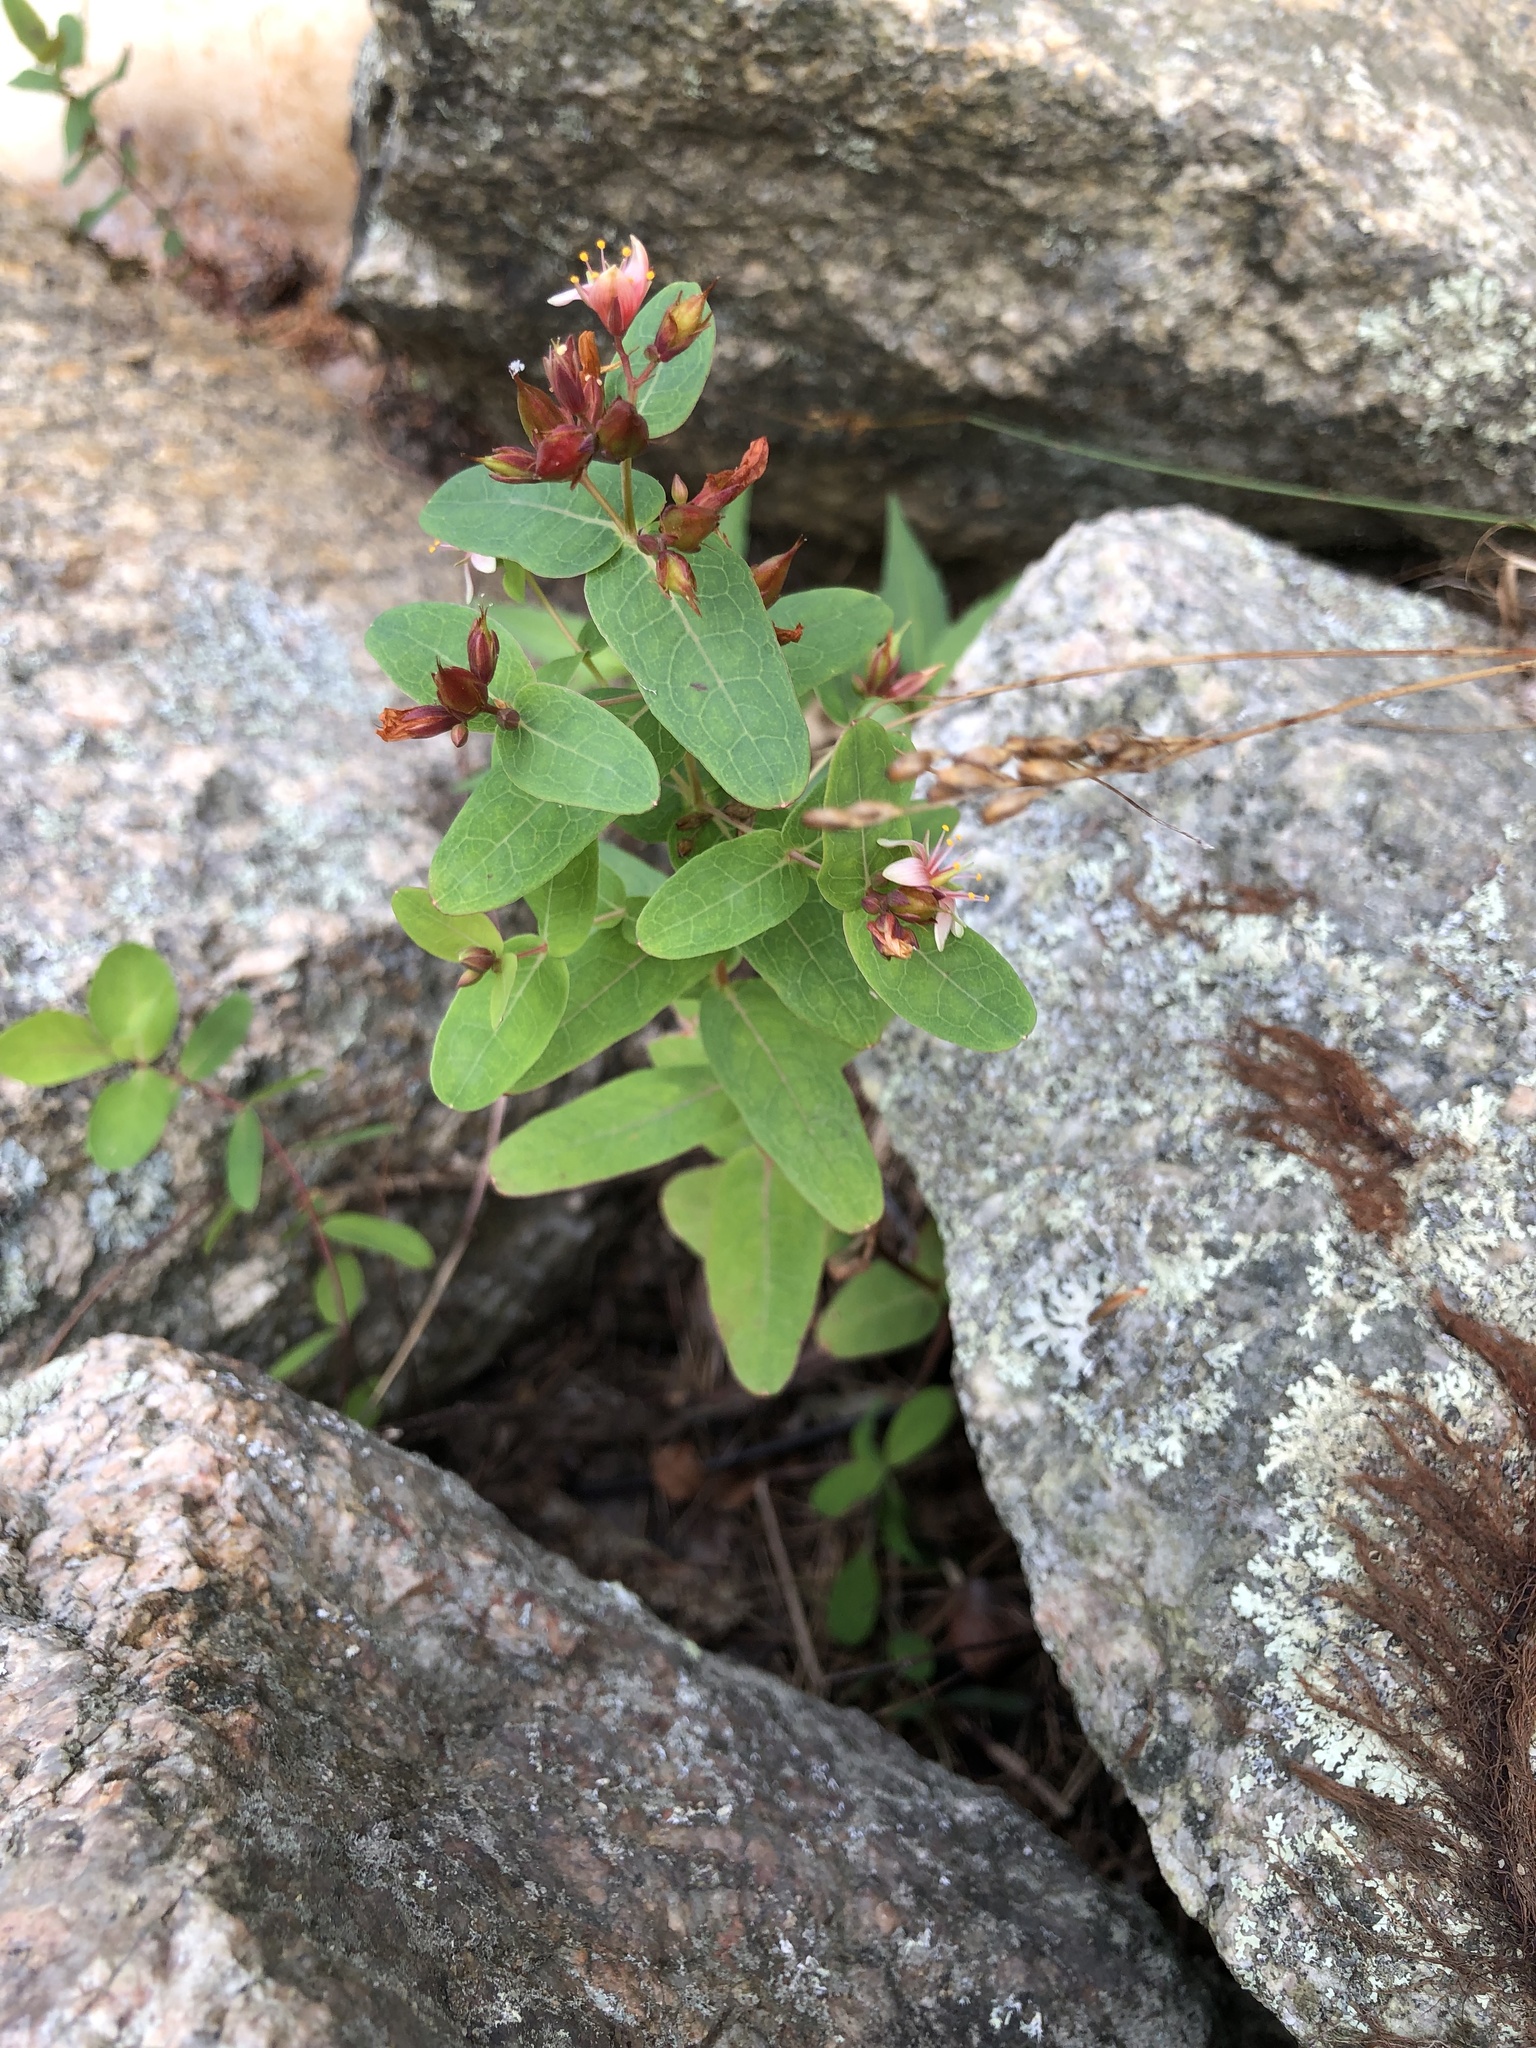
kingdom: Plantae
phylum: Tracheophyta
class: Magnoliopsida
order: Malpighiales
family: Hypericaceae
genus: Triadenum
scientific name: Triadenum virginicum
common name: Marsh st. john's-wort
